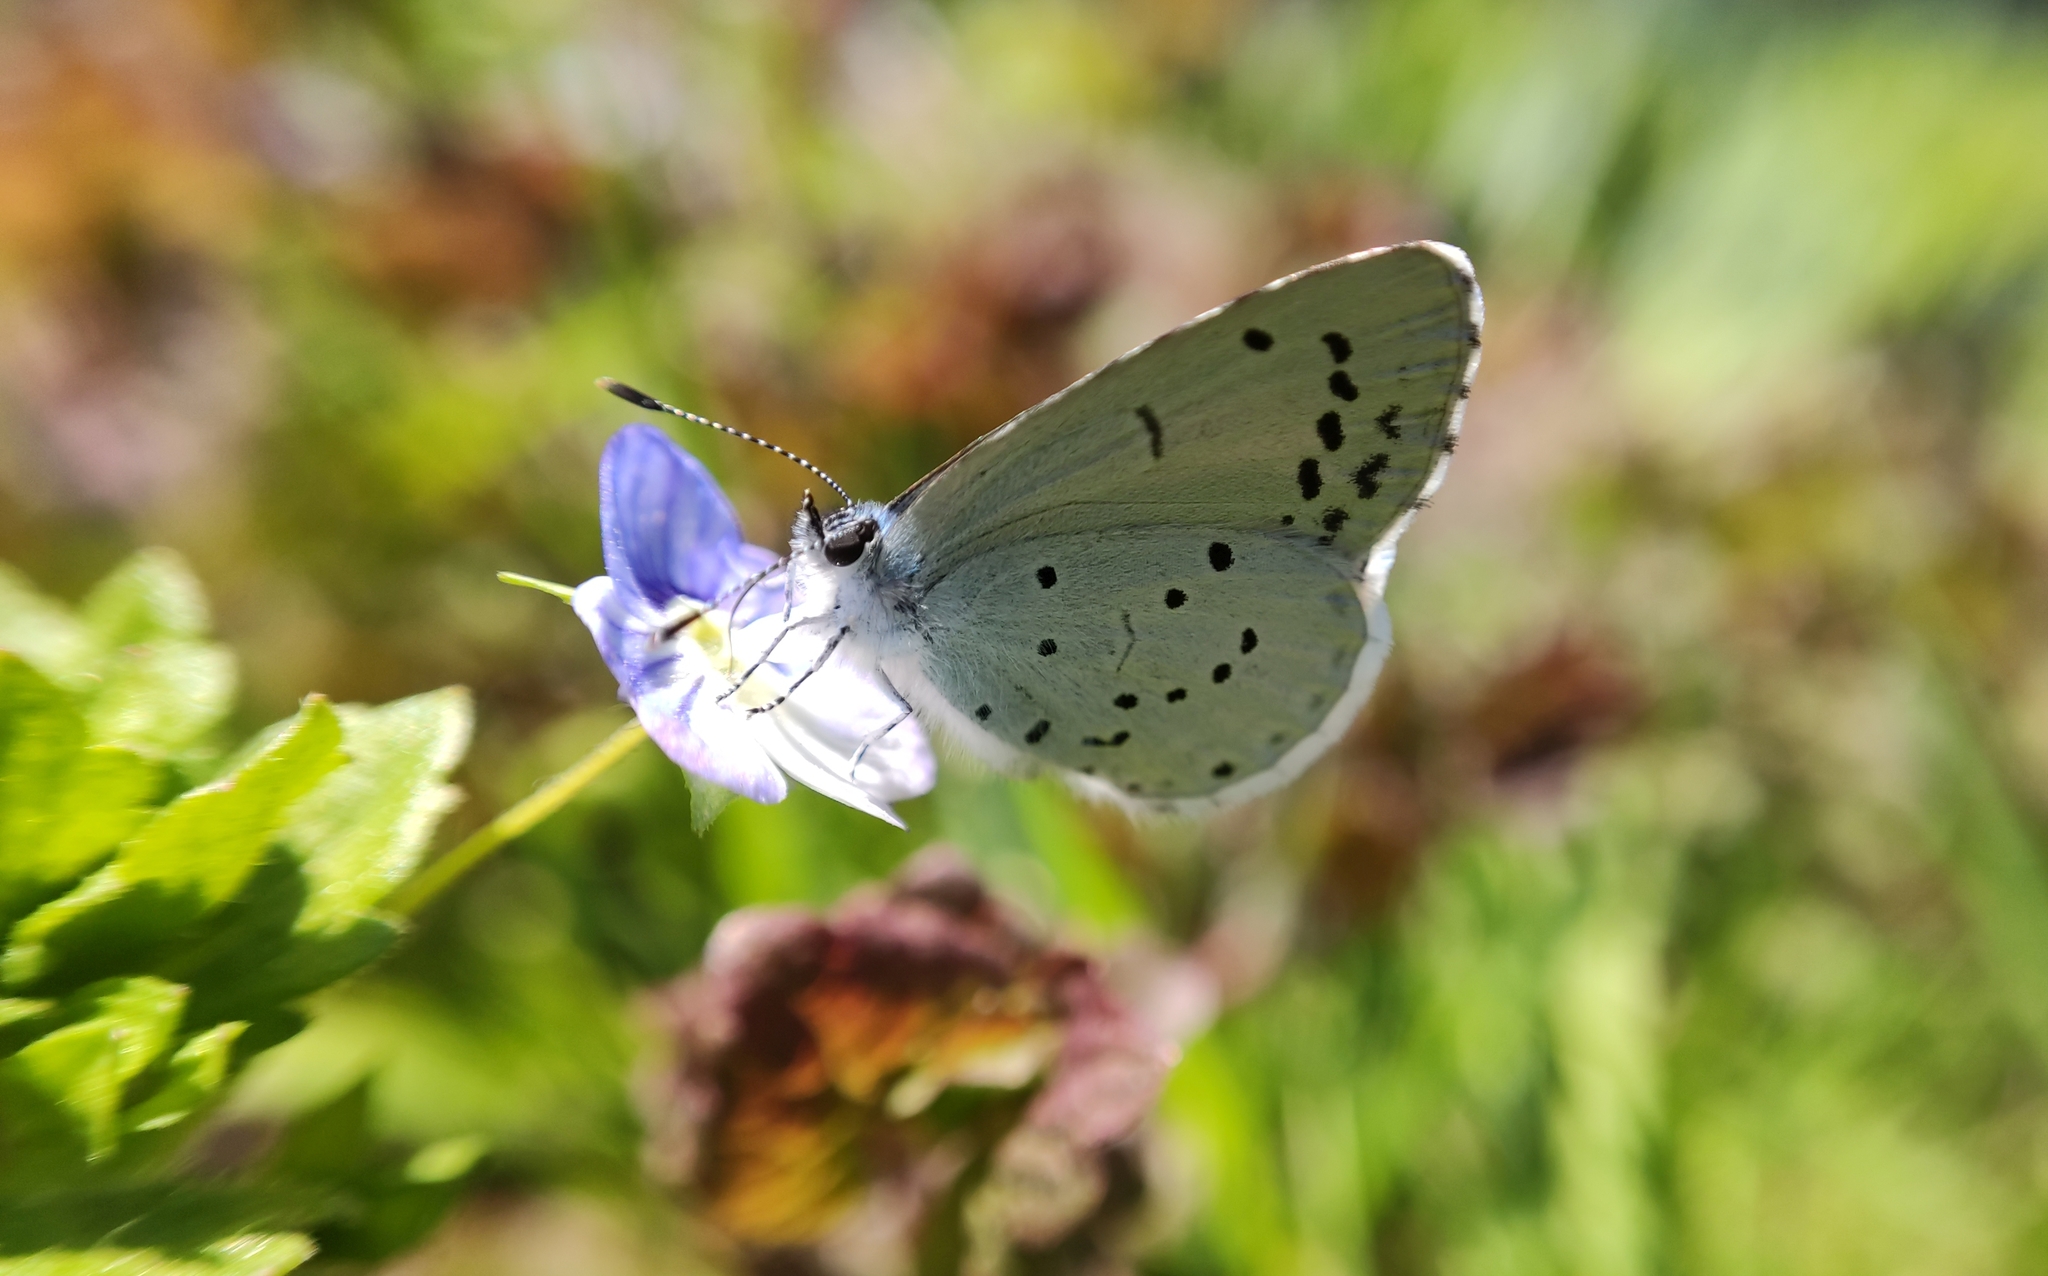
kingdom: Animalia
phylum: Arthropoda
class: Insecta
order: Lepidoptera
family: Lycaenidae
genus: Celastrina
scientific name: Celastrina argiolus
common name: Holly blue
